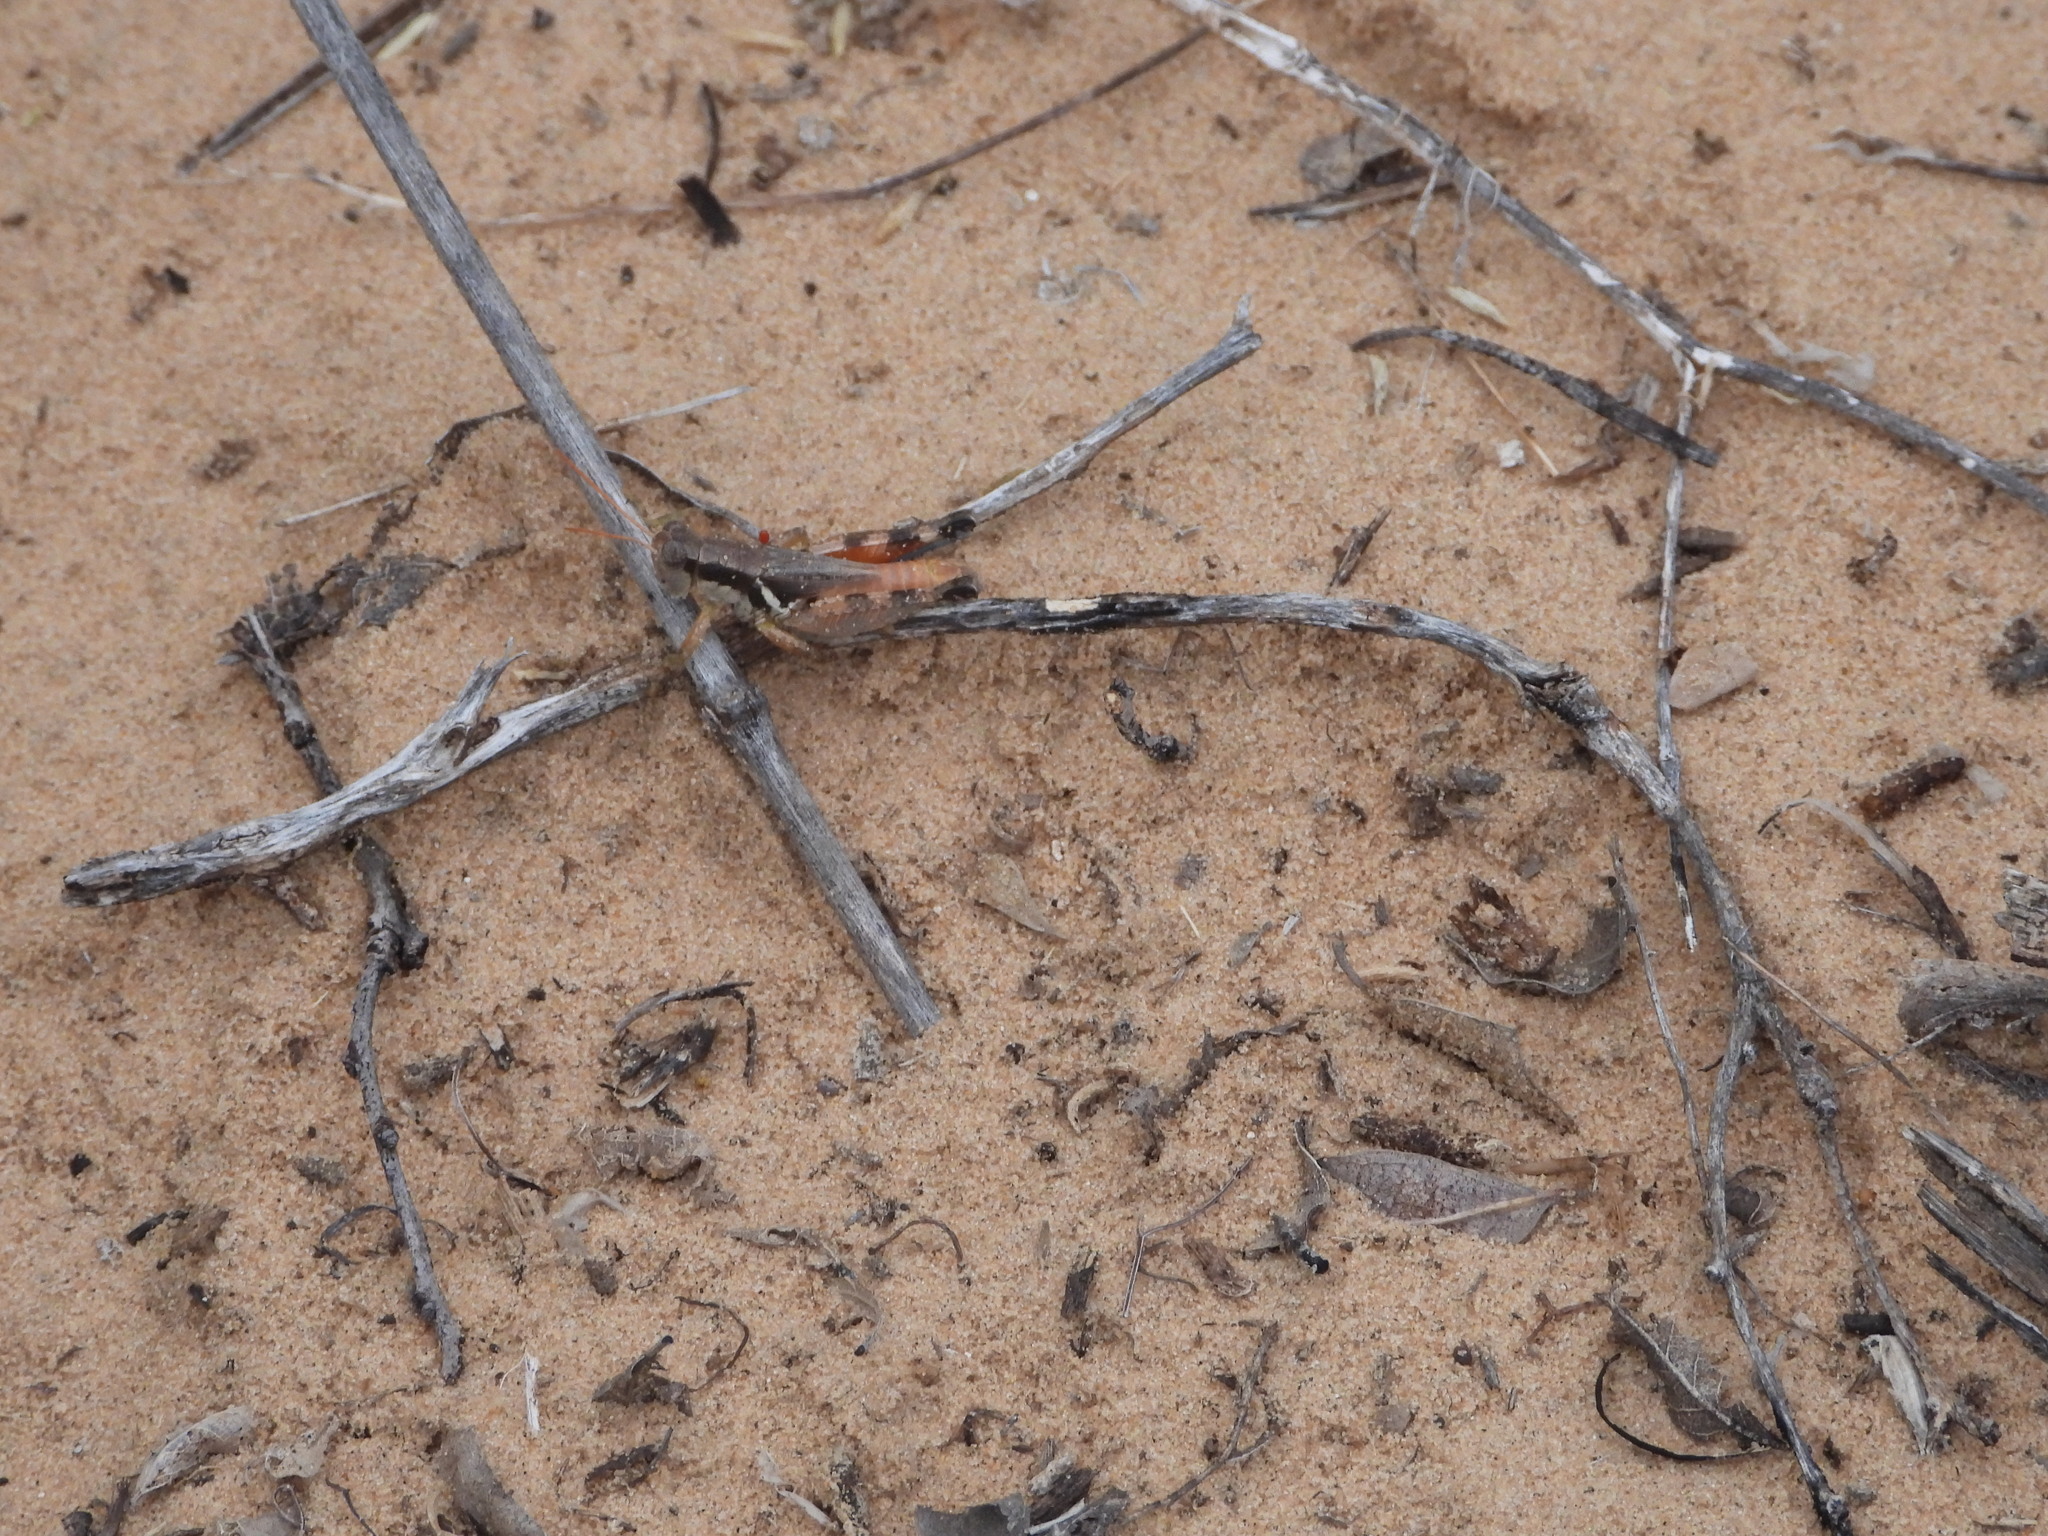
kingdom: Animalia
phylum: Arthropoda
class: Insecta
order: Orthoptera
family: Acrididae
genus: Melanoplus
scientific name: Melanoplus lakinus
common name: Lakin grasshopper
